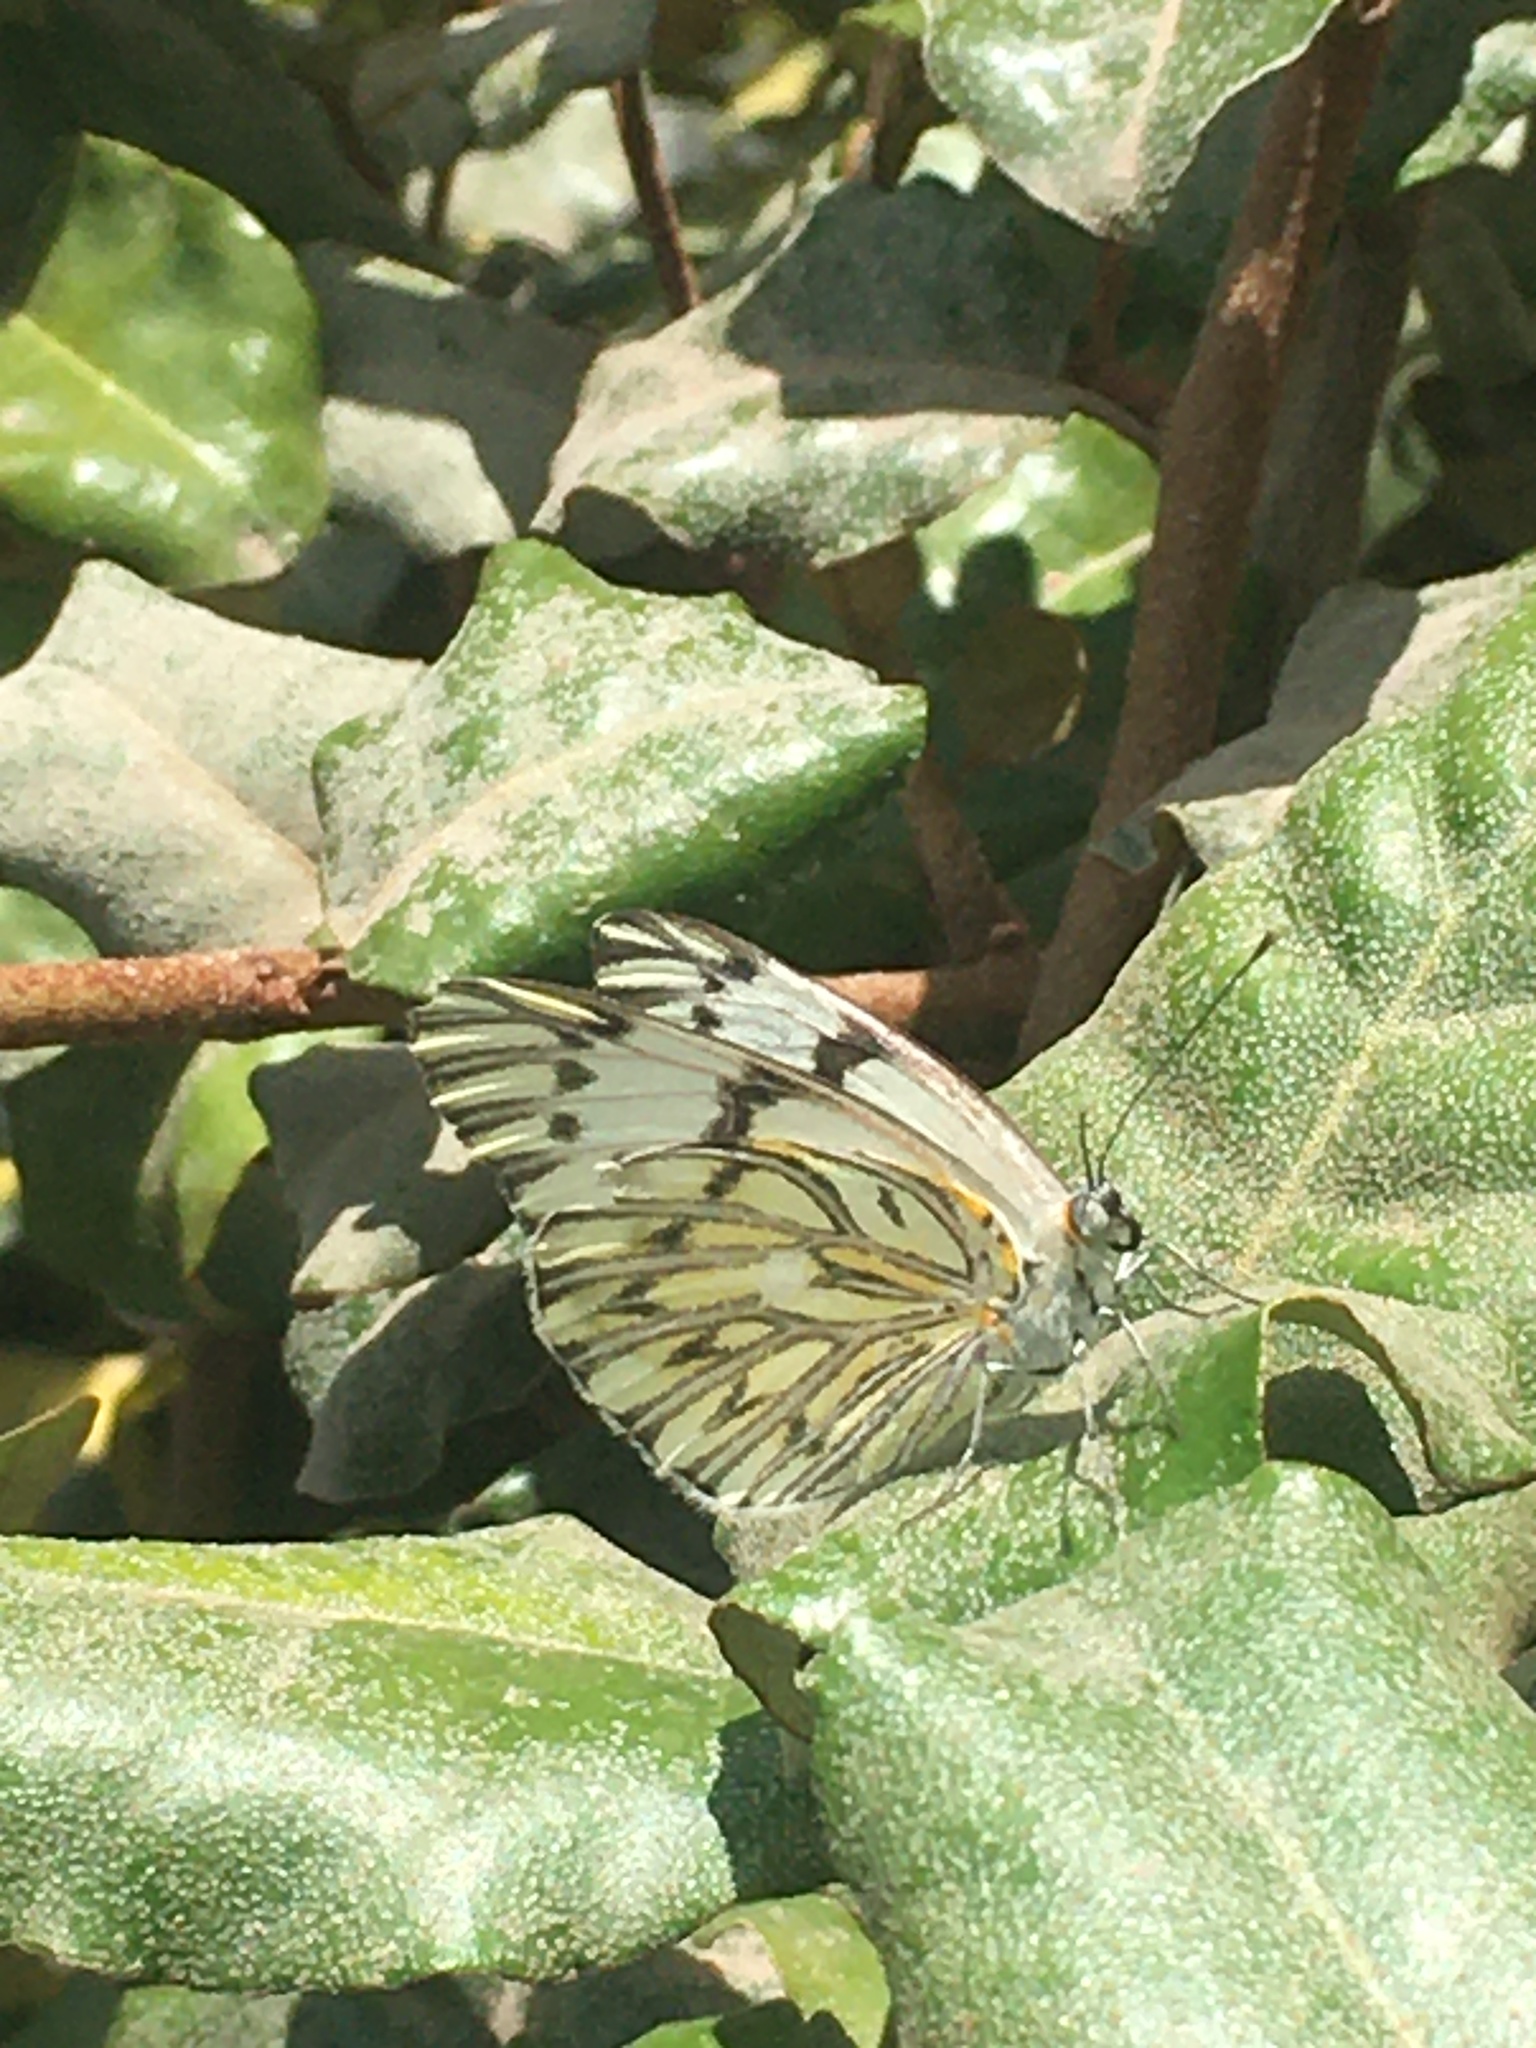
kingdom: Animalia
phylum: Arthropoda
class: Insecta
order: Lepidoptera
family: Pieridae
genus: Tatochila
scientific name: Tatochila autodice
